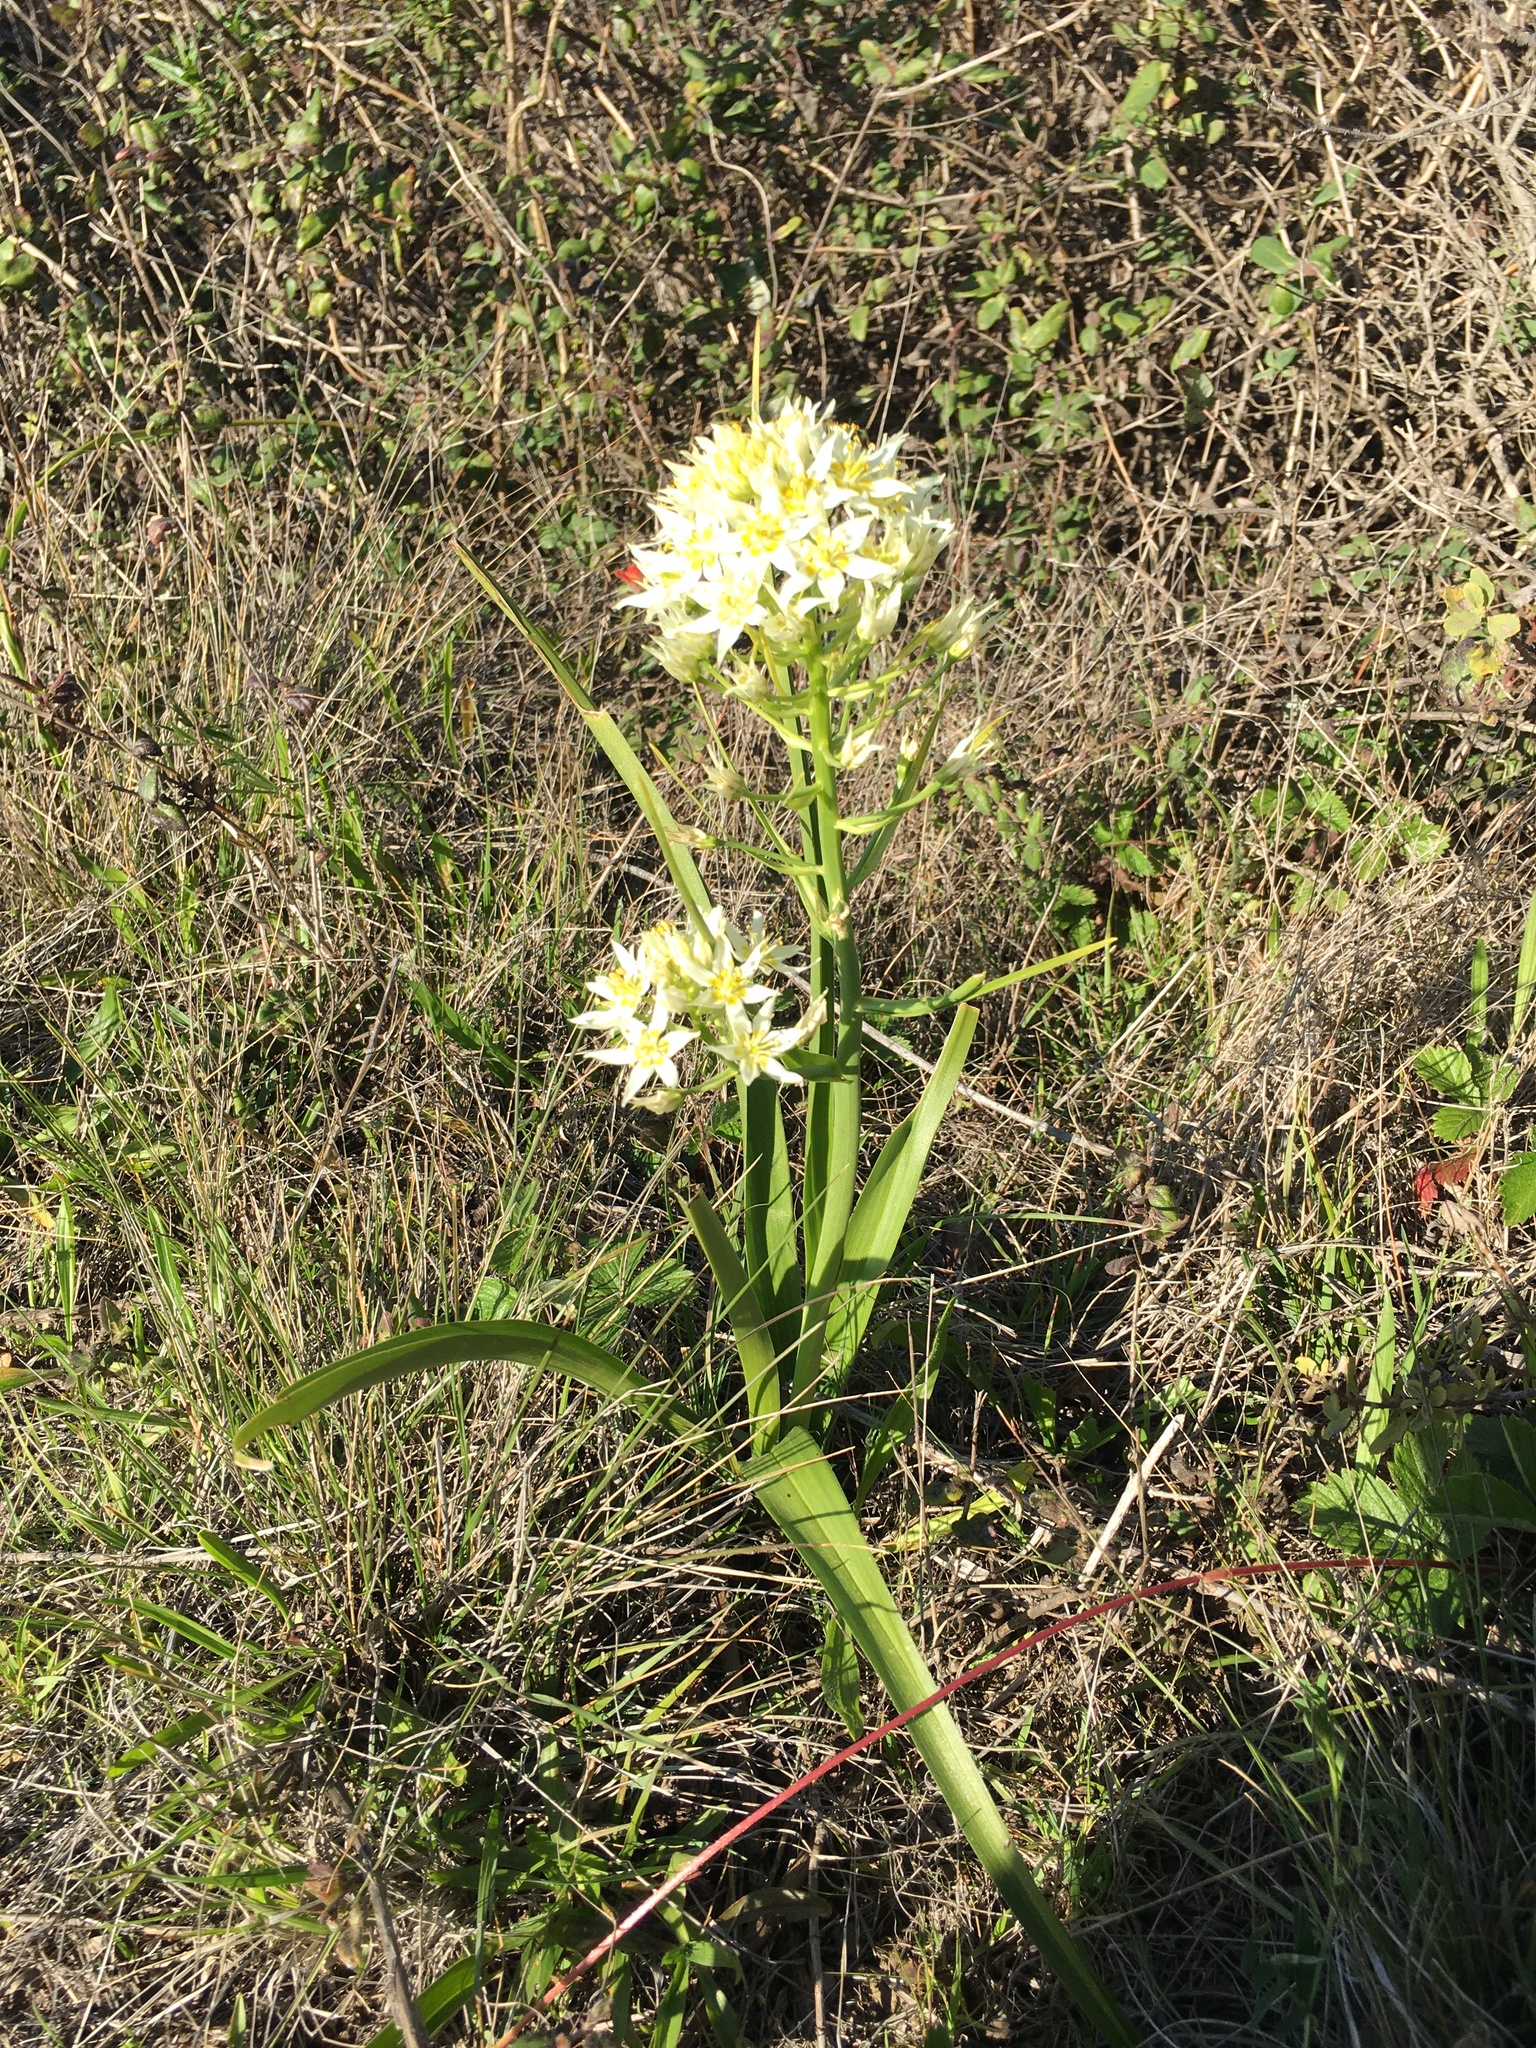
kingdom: Plantae
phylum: Tracheophyta
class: Liliopsida
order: Liliales
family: Melanthiaceae
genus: Toxicoscordion
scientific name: Toxicoscordion fremontii
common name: Fremont's death camas
